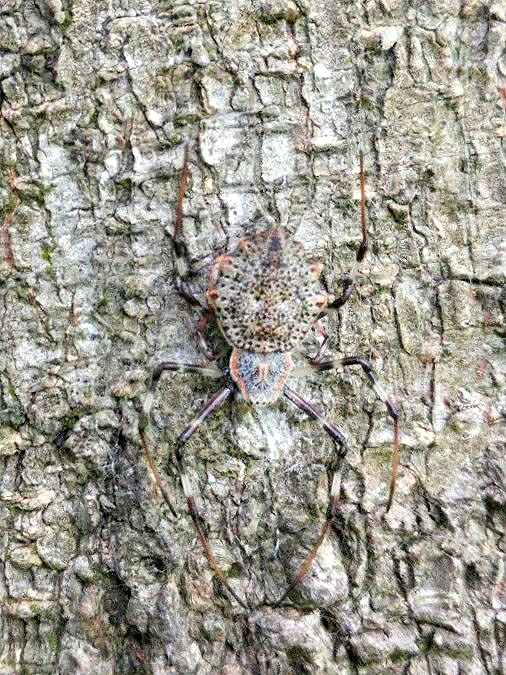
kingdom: Animalia
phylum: Arthropoda
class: Arachnida
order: Araneae
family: Araneidae
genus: Herennia
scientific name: Herennia multipuncta
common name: Spotted coin spider
